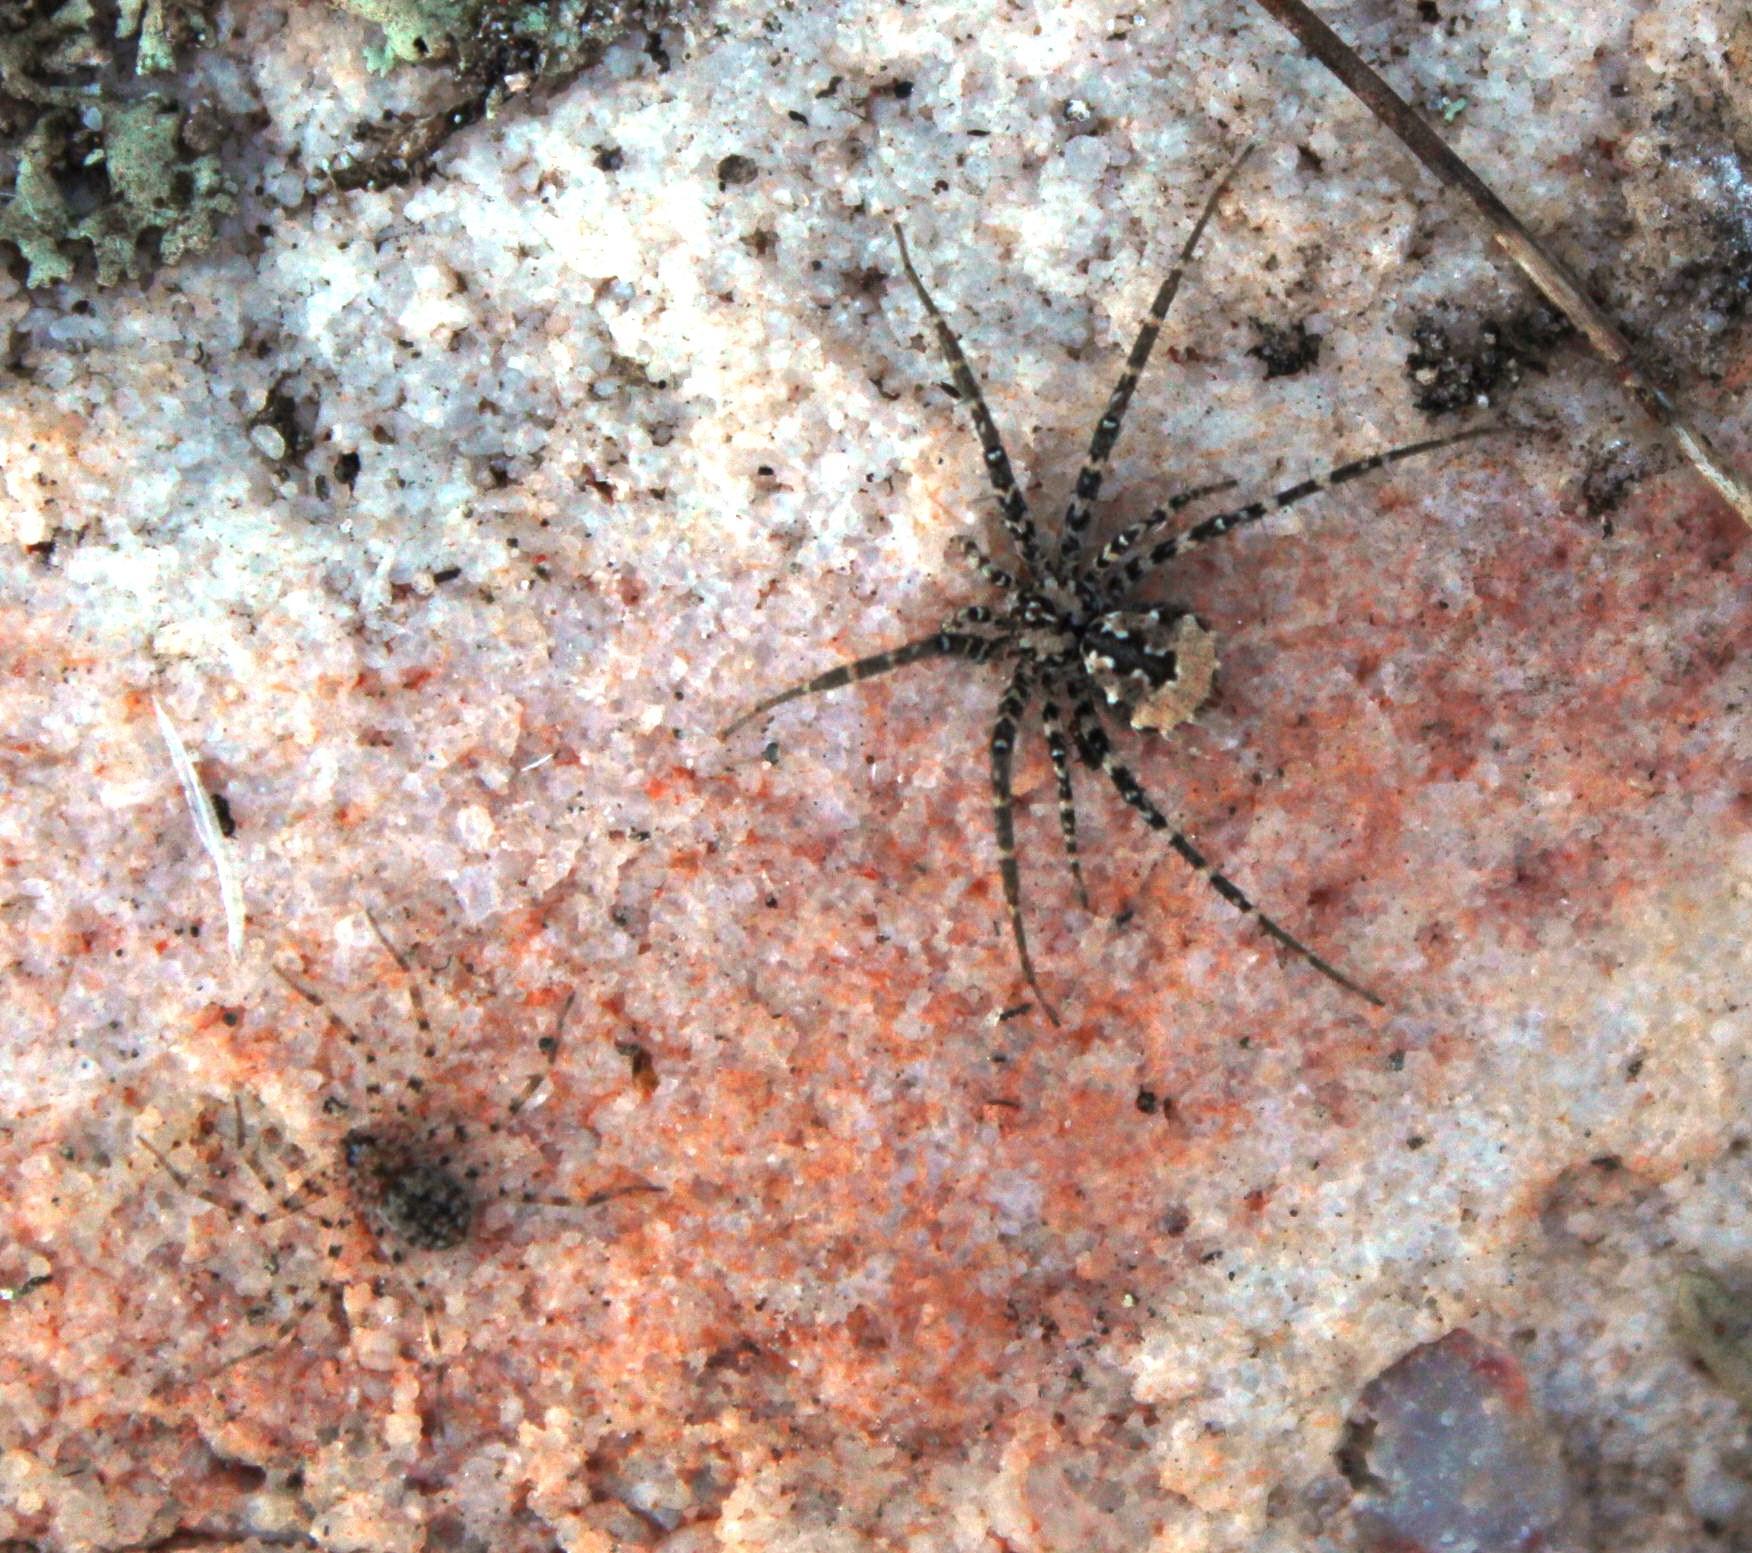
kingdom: Animalia
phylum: Arthropoda
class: Arachnida
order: Araneae
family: Hersiliidae
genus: Tyrotama
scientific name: Tyrotama abyssus
